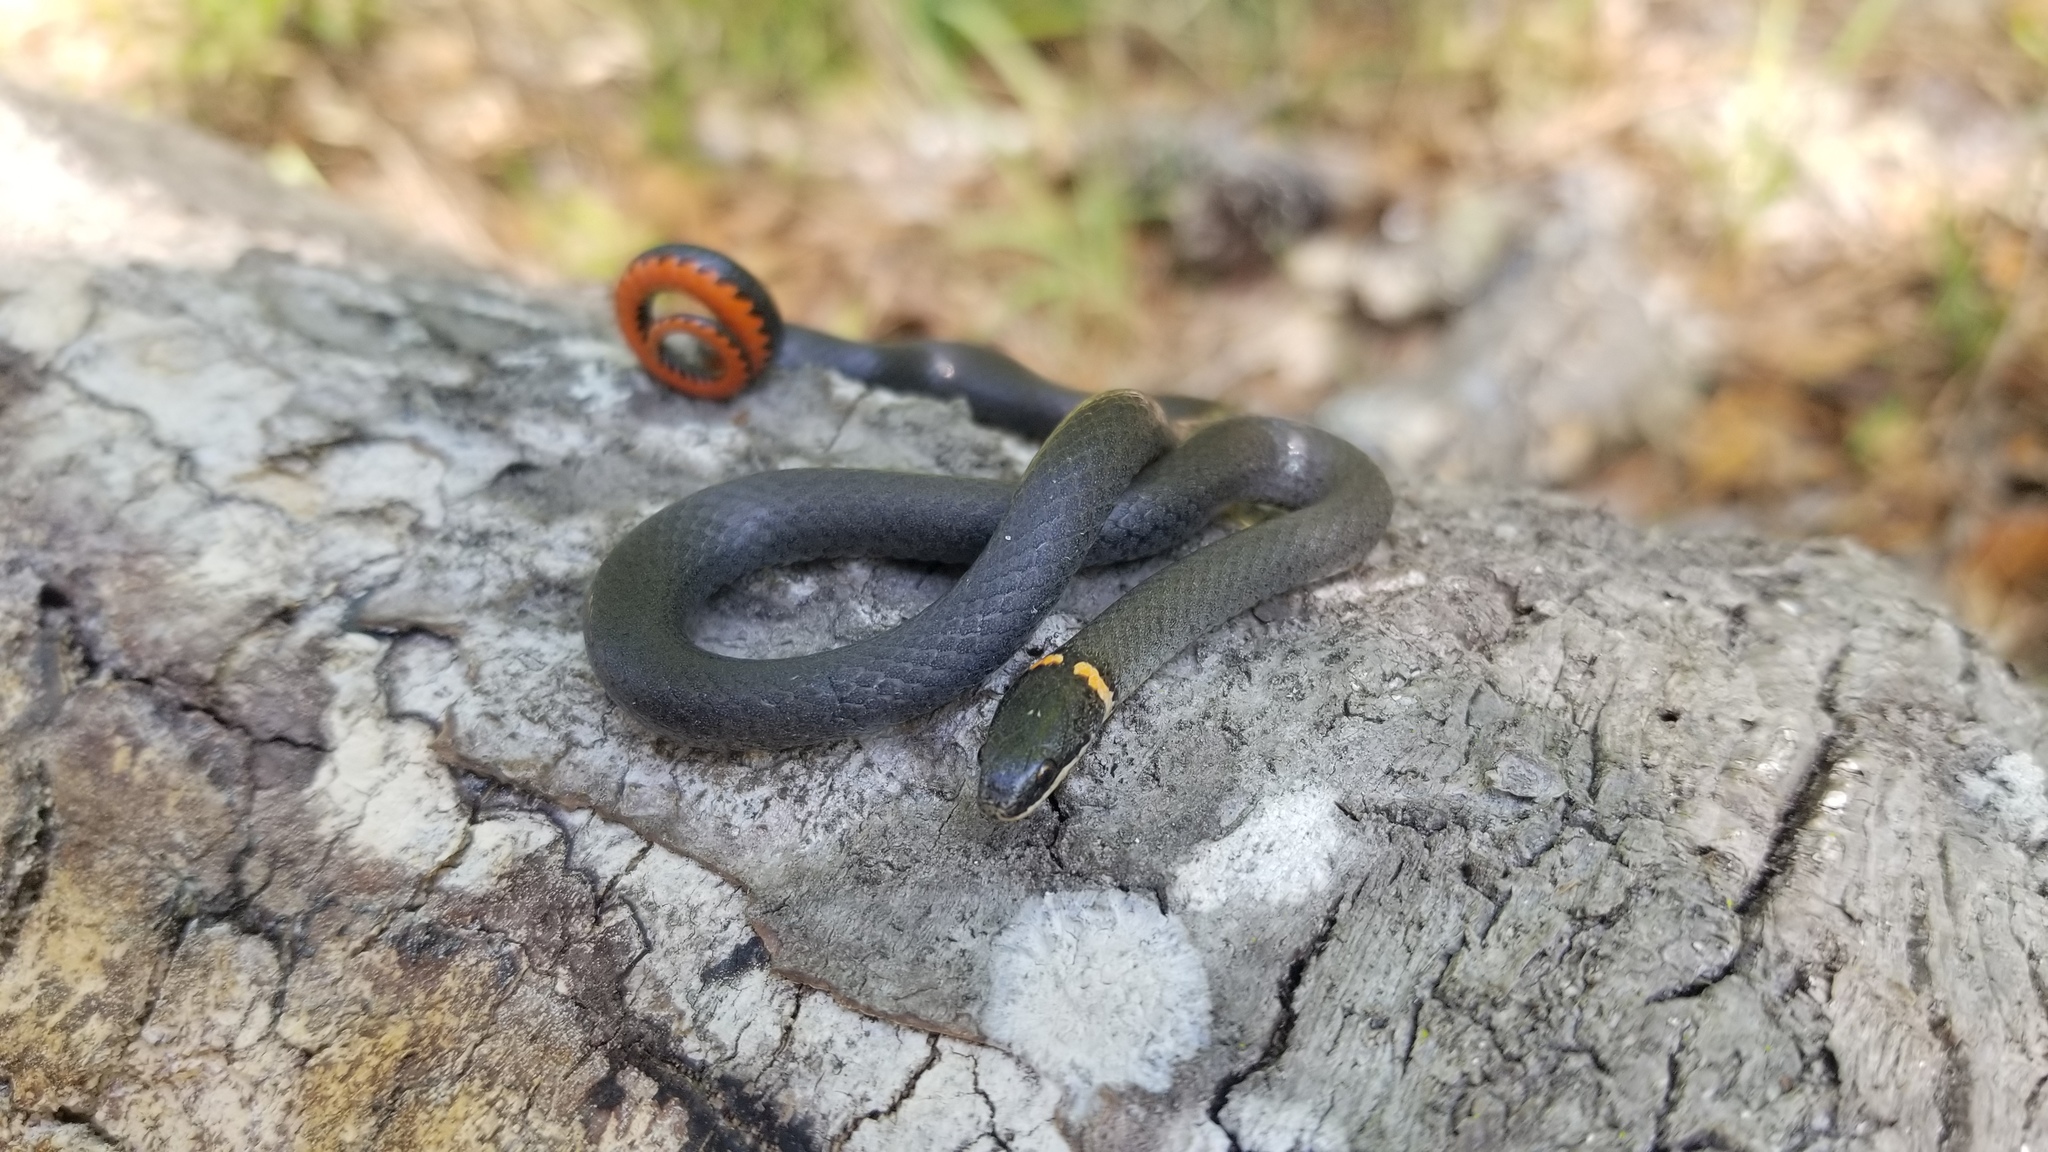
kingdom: Animalia
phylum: Chordata
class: Squamata
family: Colubridae
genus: Diadophis
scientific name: Diadophis punctatus
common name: Ringneck snake
